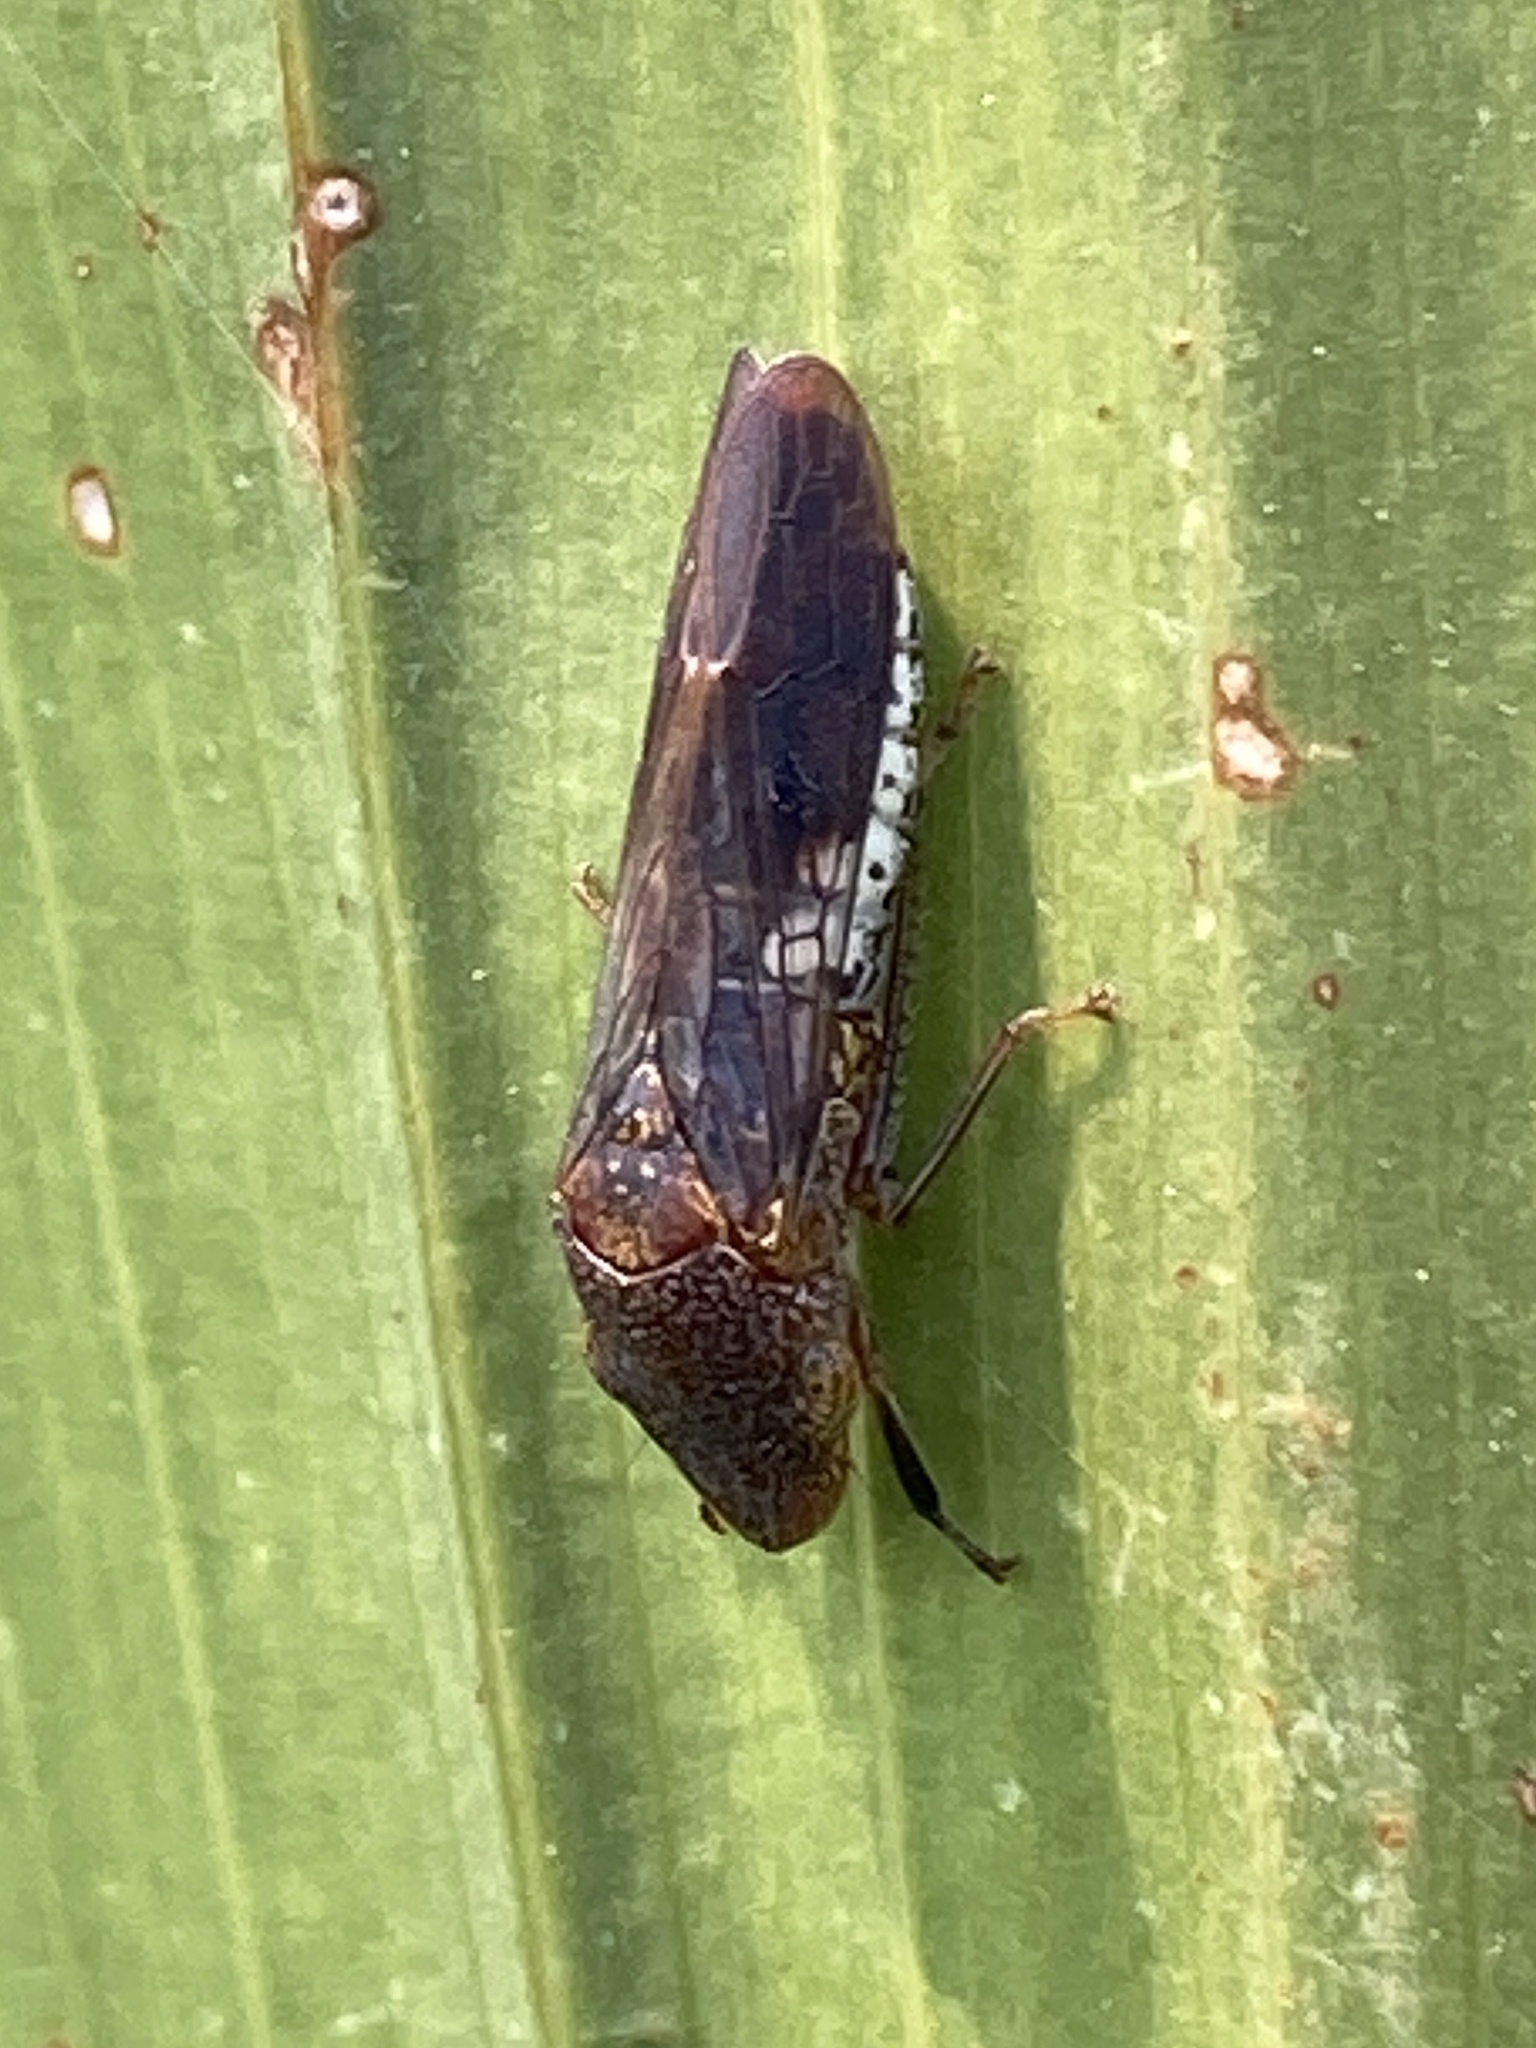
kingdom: Animalia
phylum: Arthropoda
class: Insecta
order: Hemiptera
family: Cicadellidae
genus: Homalodisca
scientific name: Homalodisca vitripennis
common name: Glassy-winged sharpshooter
